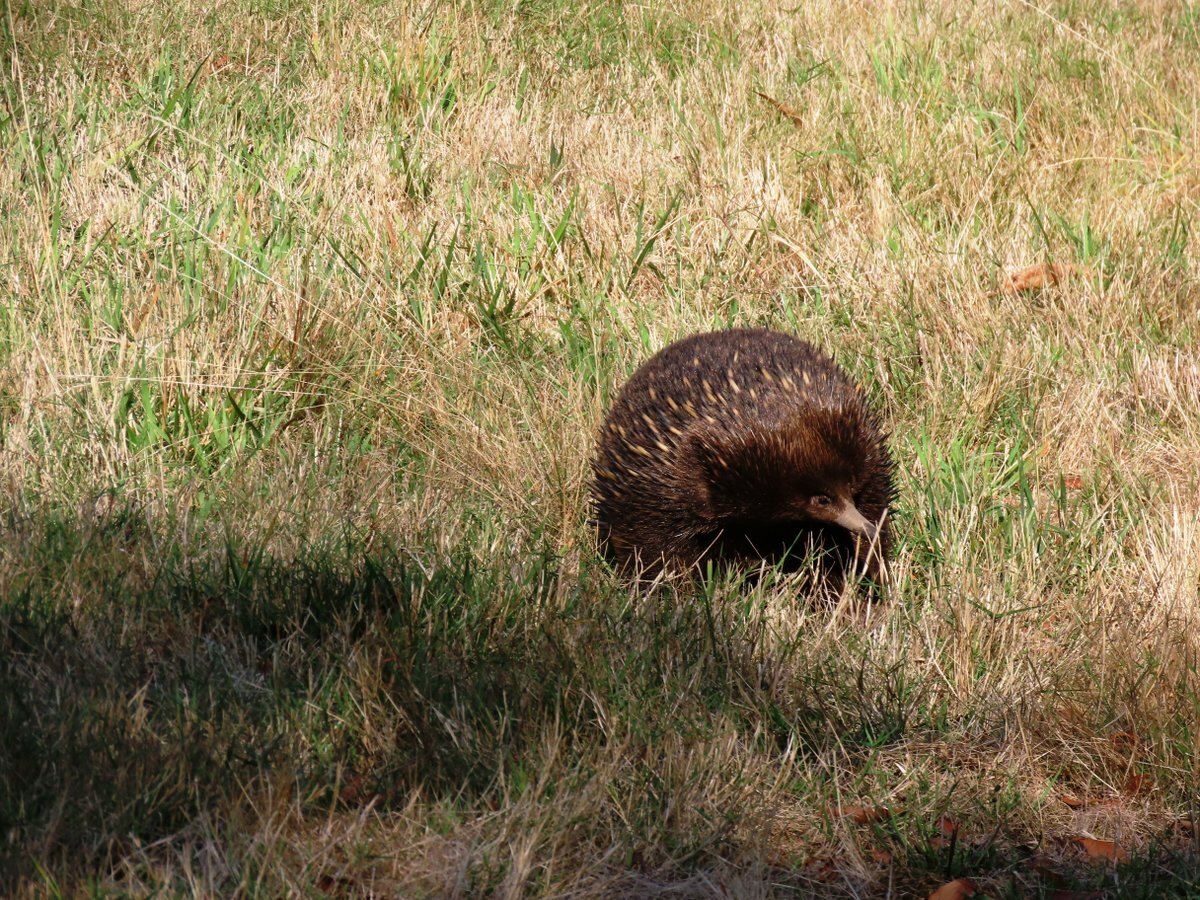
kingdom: Animalia
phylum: Chordata
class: Mammalia
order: Monotremata
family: Tachyglossidae
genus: Tachyglossus
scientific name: Tachyglossus aculeatus
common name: Short-beaked echidna
